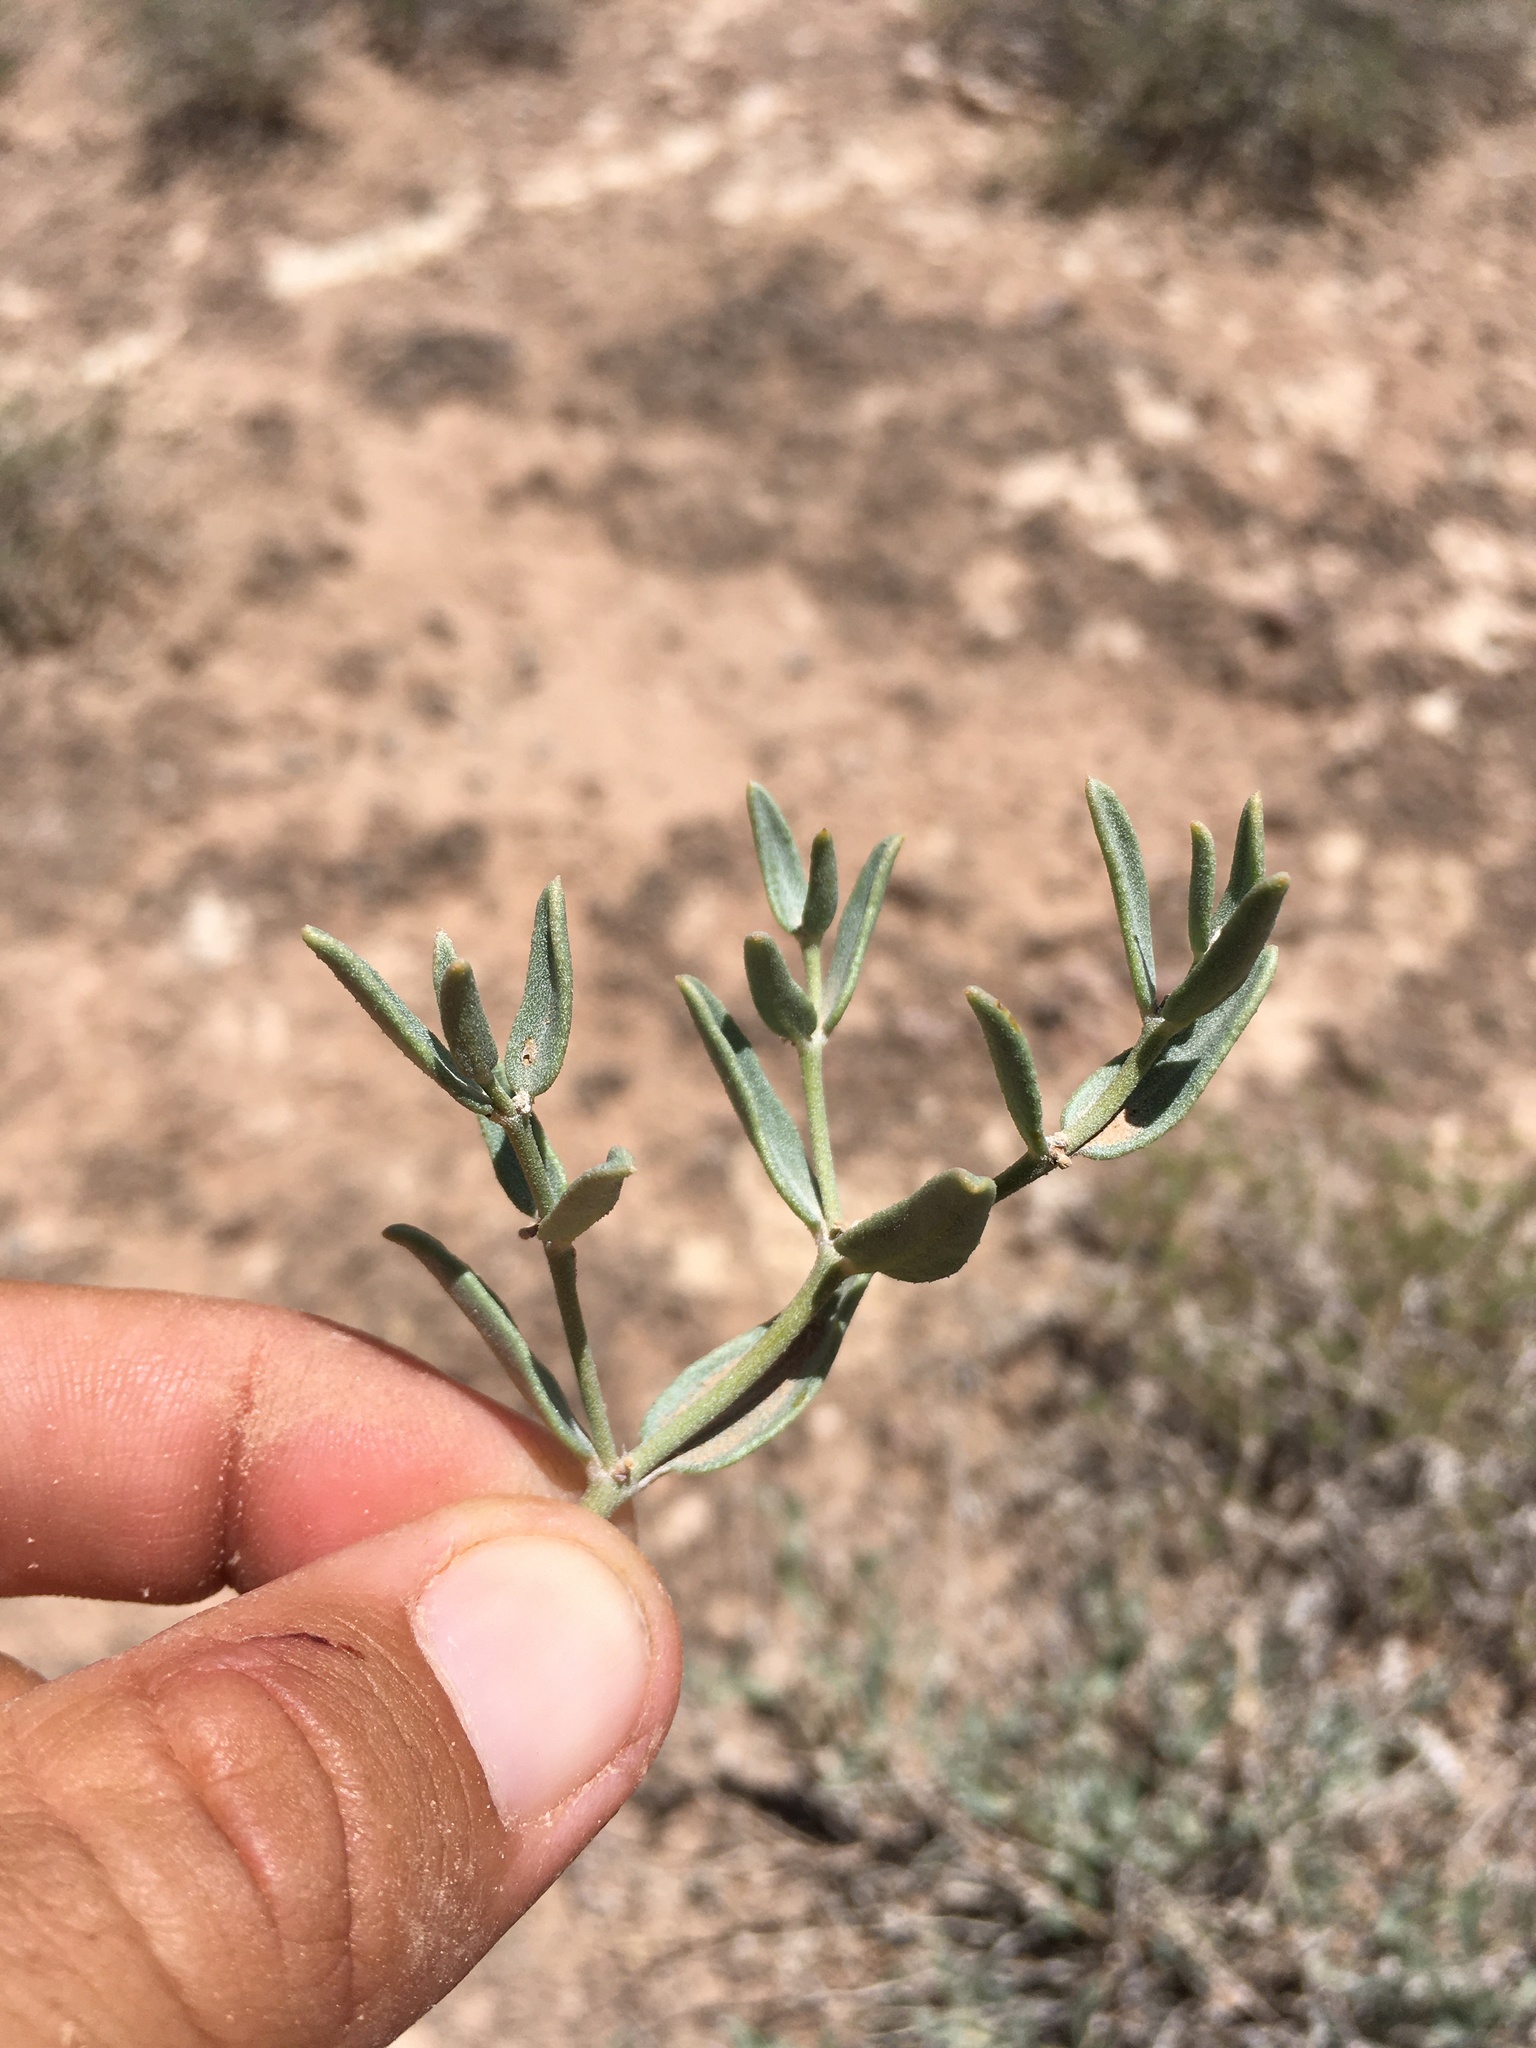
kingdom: Plantae
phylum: Tracheophyta
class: Magnoliopsida
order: Caryophyllales
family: Nyctaginaceae
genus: Acleisanthes
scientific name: Acleisanthes lanceolata
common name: Gypsum moonpod
